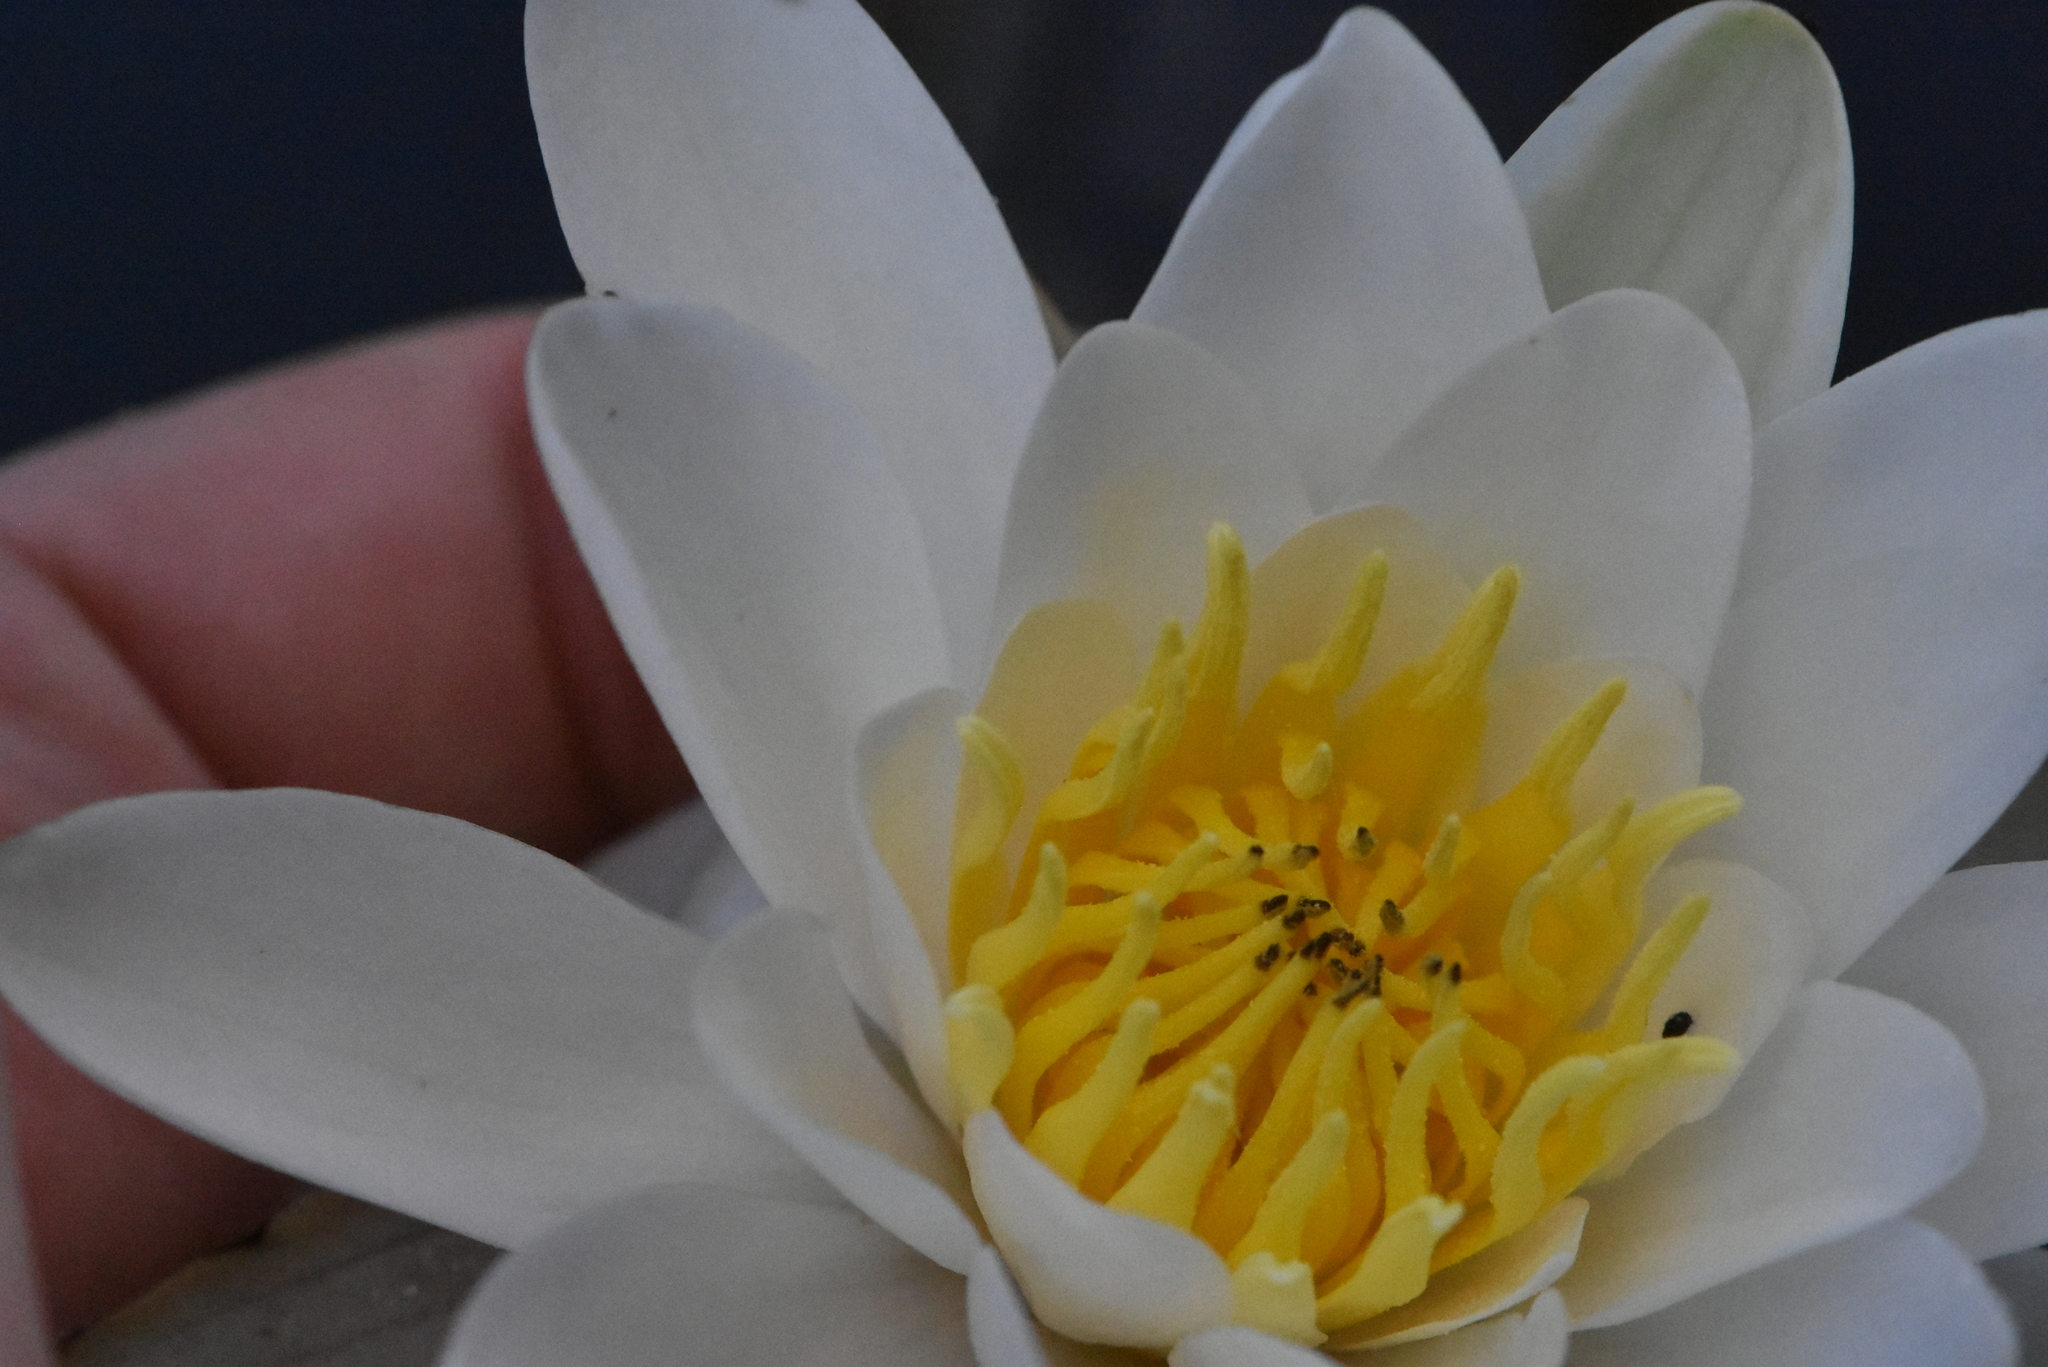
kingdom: Plantae
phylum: Tracheophyta
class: Magnoliopsida
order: Nymphaeales
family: Nymphaeaceae
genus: Nymphaea
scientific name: Nymphaea candida
